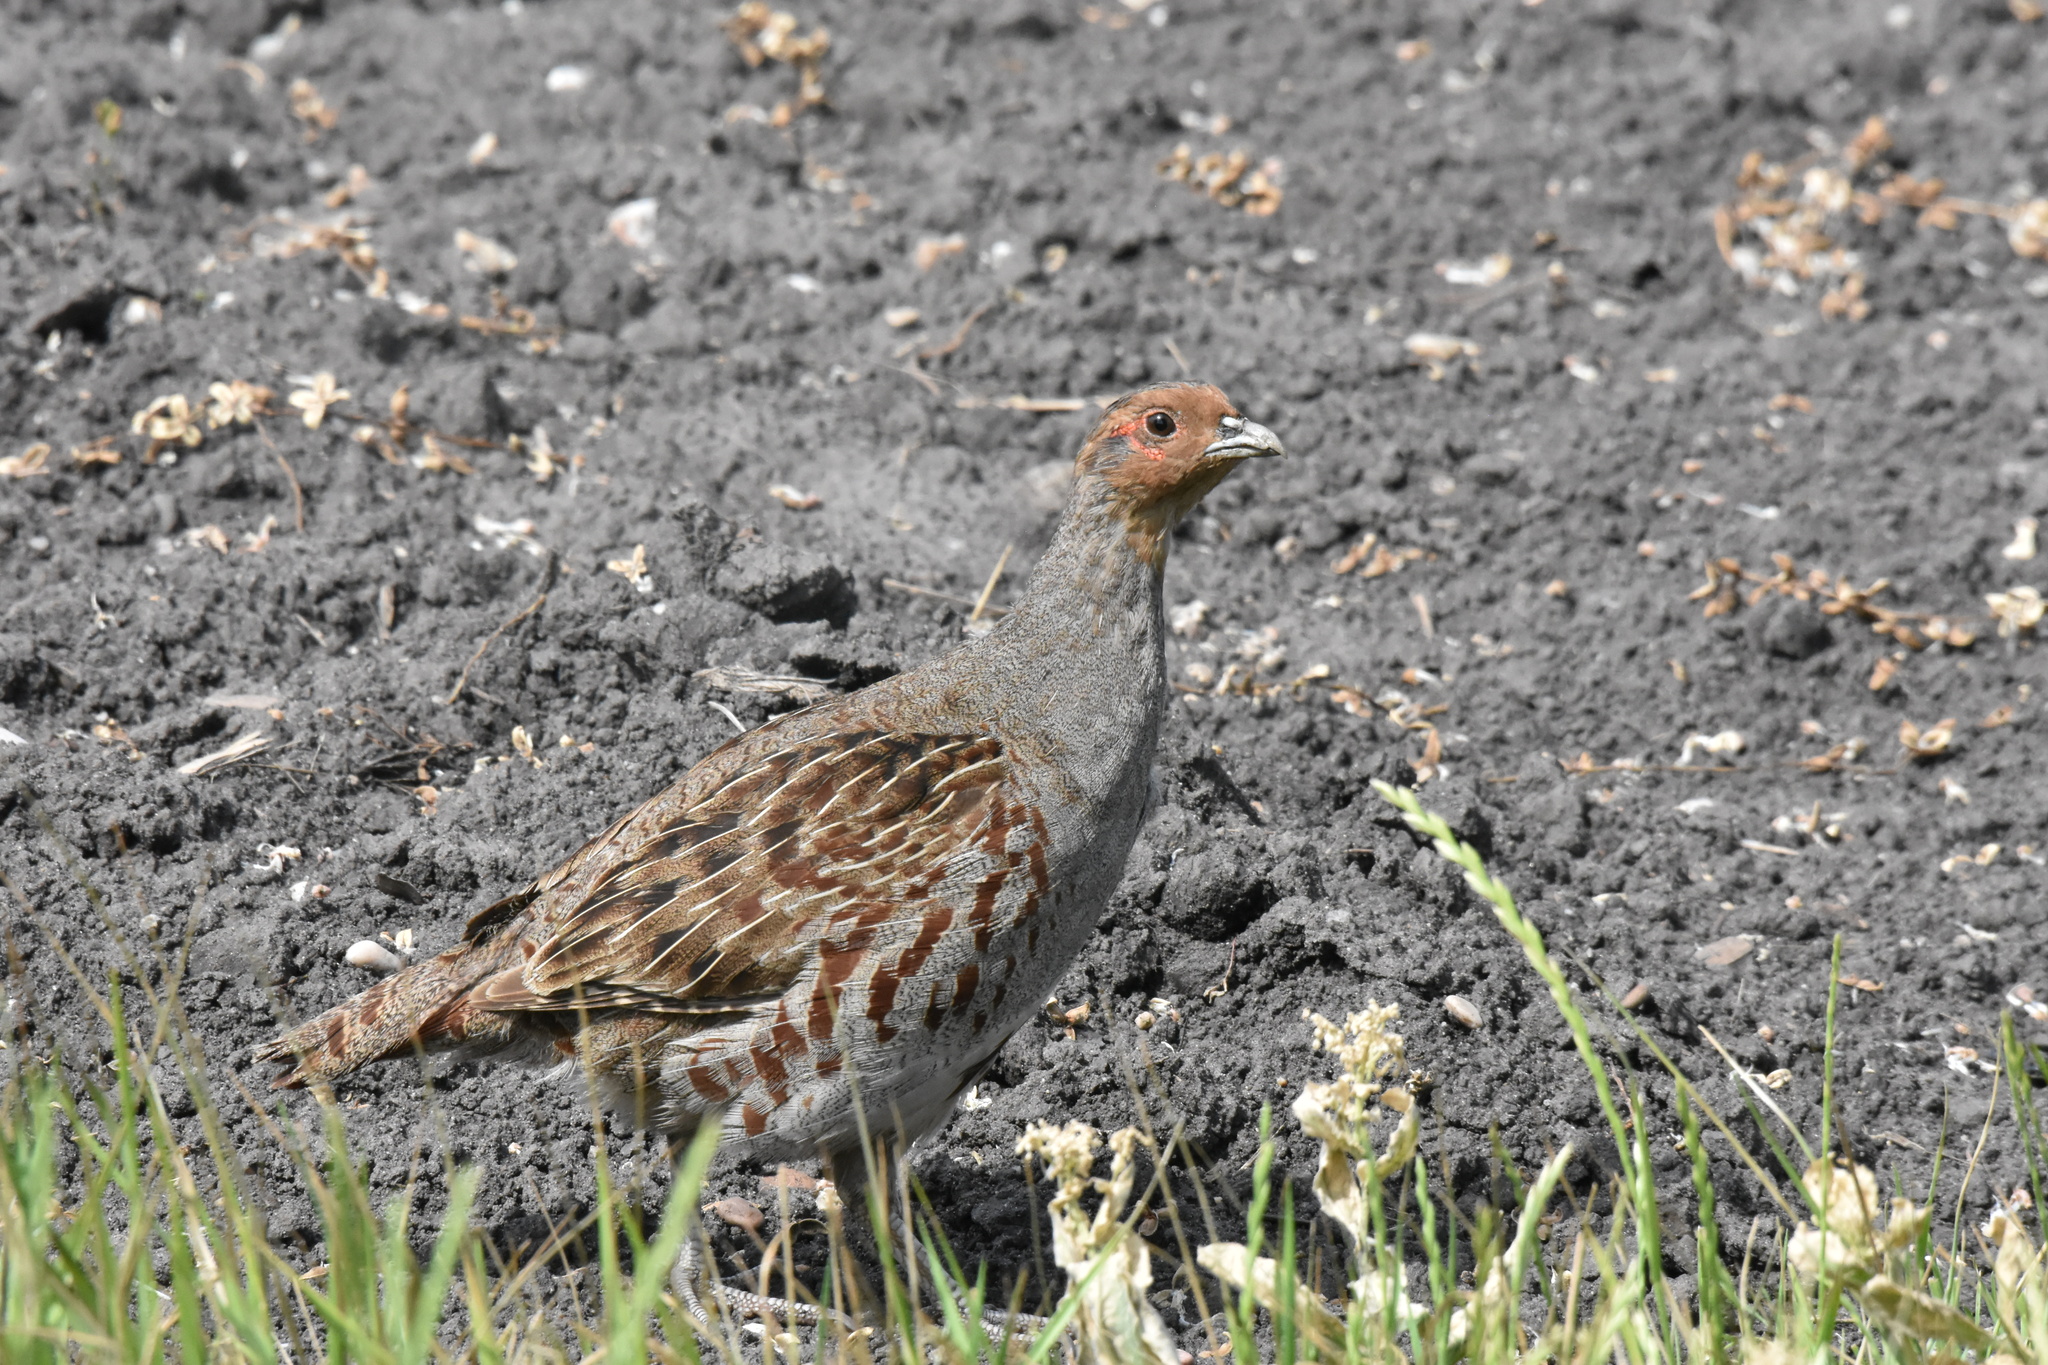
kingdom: Animalia
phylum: Chordata
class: Aves
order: Galliformes
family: Phasianidae
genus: Perdix
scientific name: Perdix perdix
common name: Grey partridge
